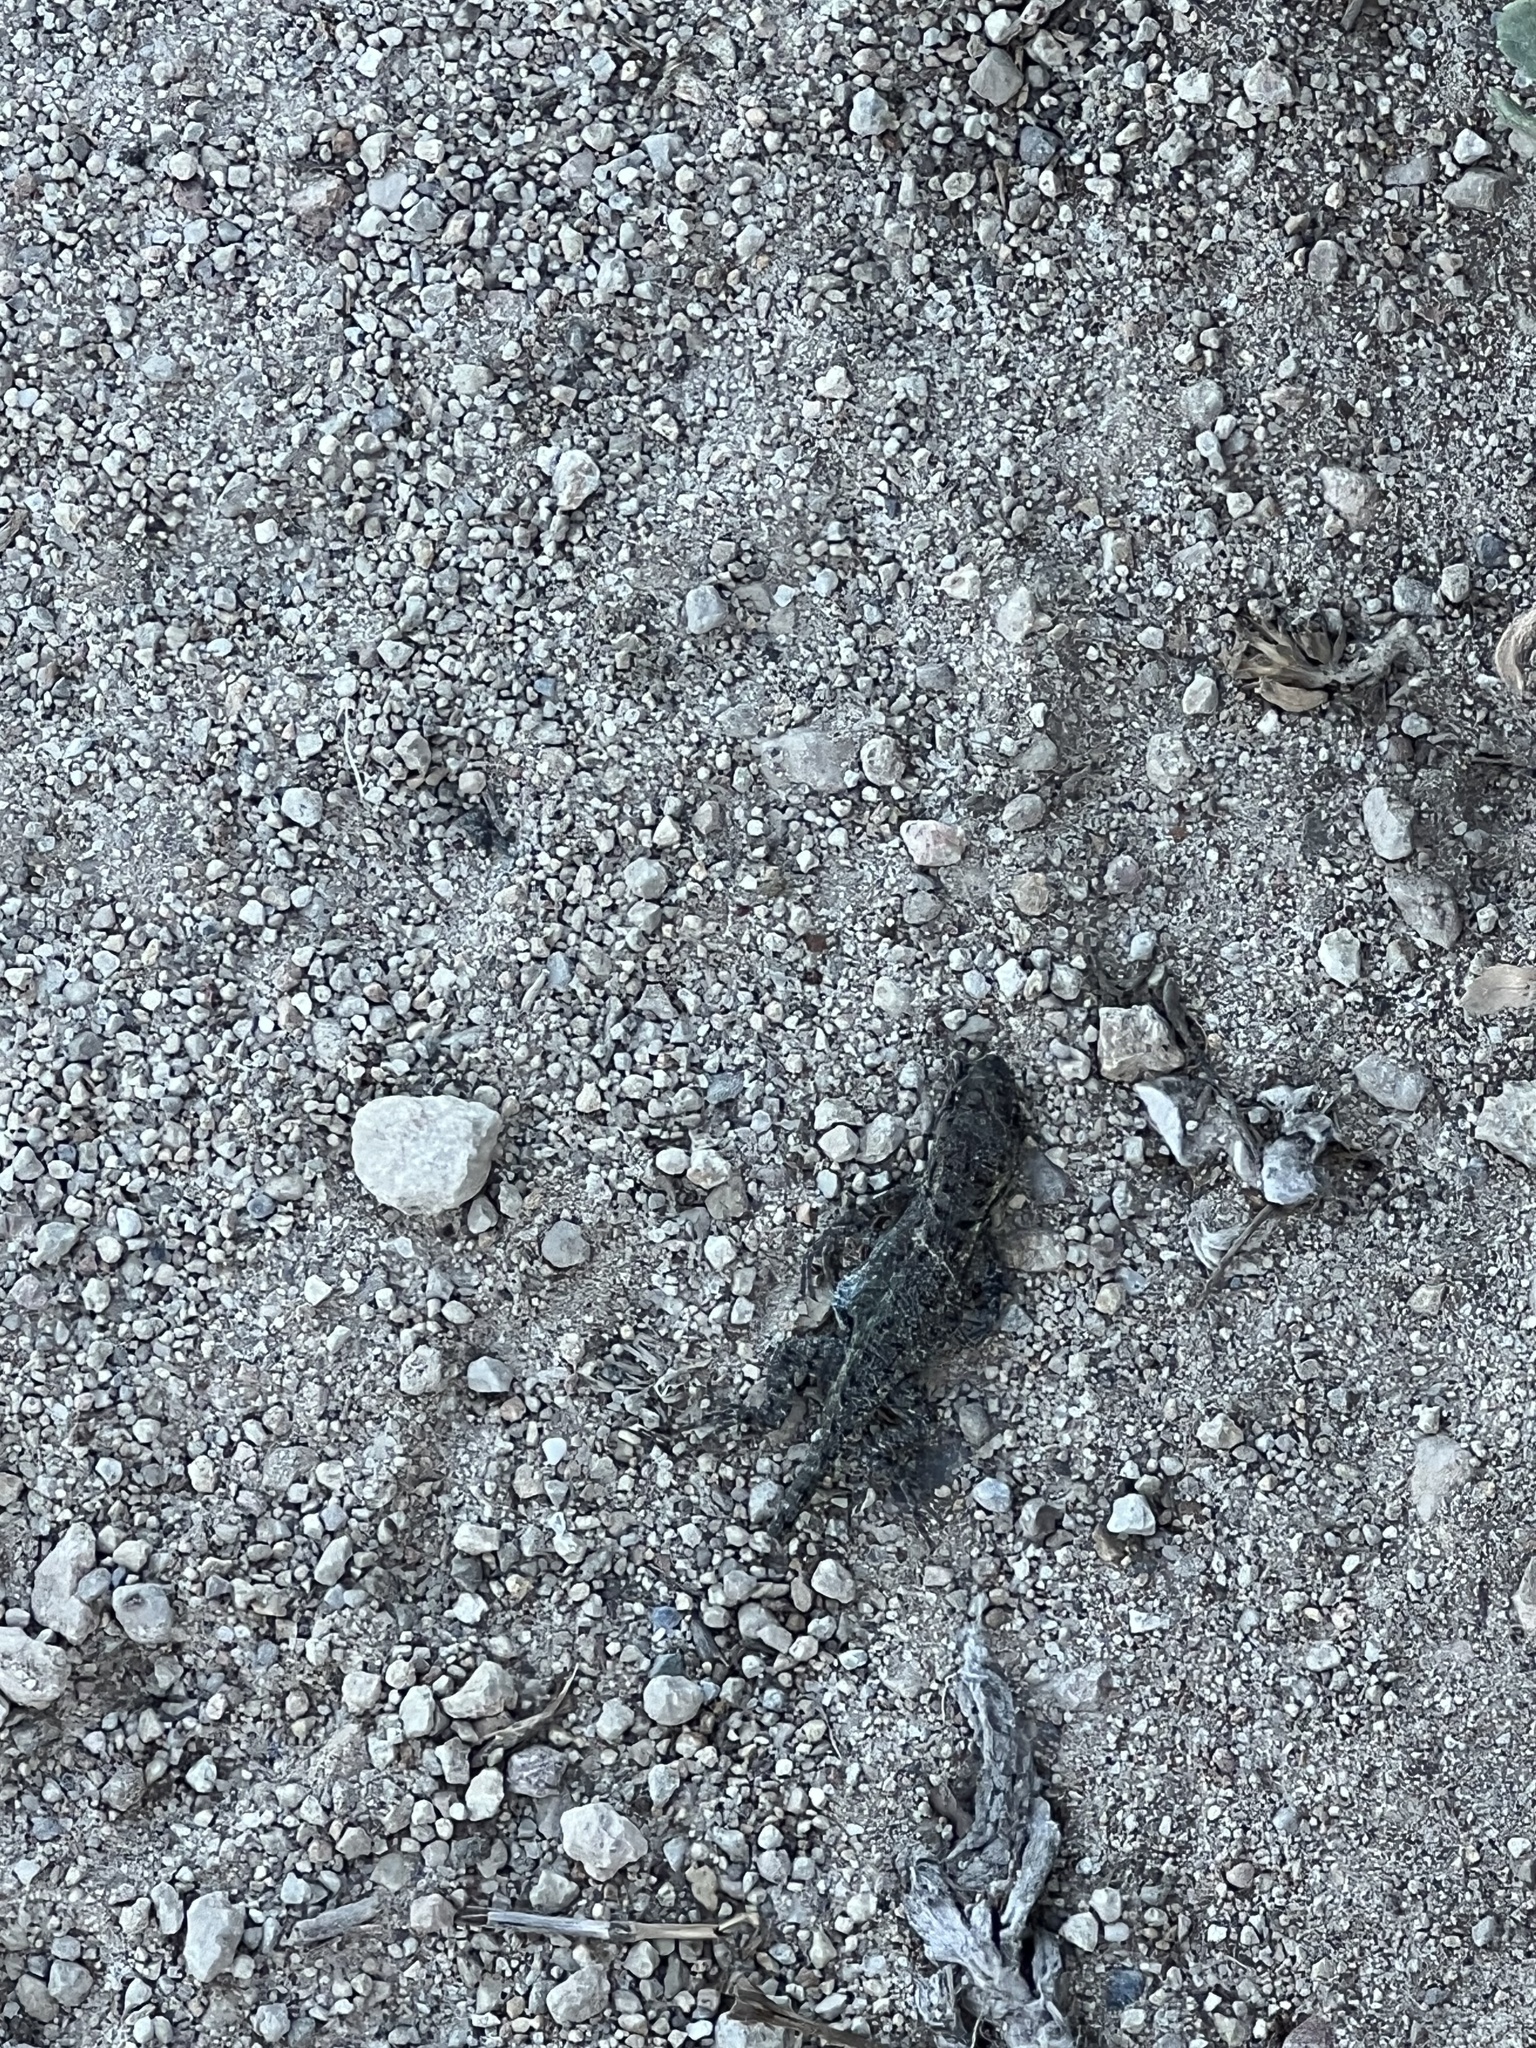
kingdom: Animalia
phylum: Chordata
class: Squamata
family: Phrynosomatidae
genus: Sceloporus
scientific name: Sceloporus occidentalis
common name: Western fence lizard
